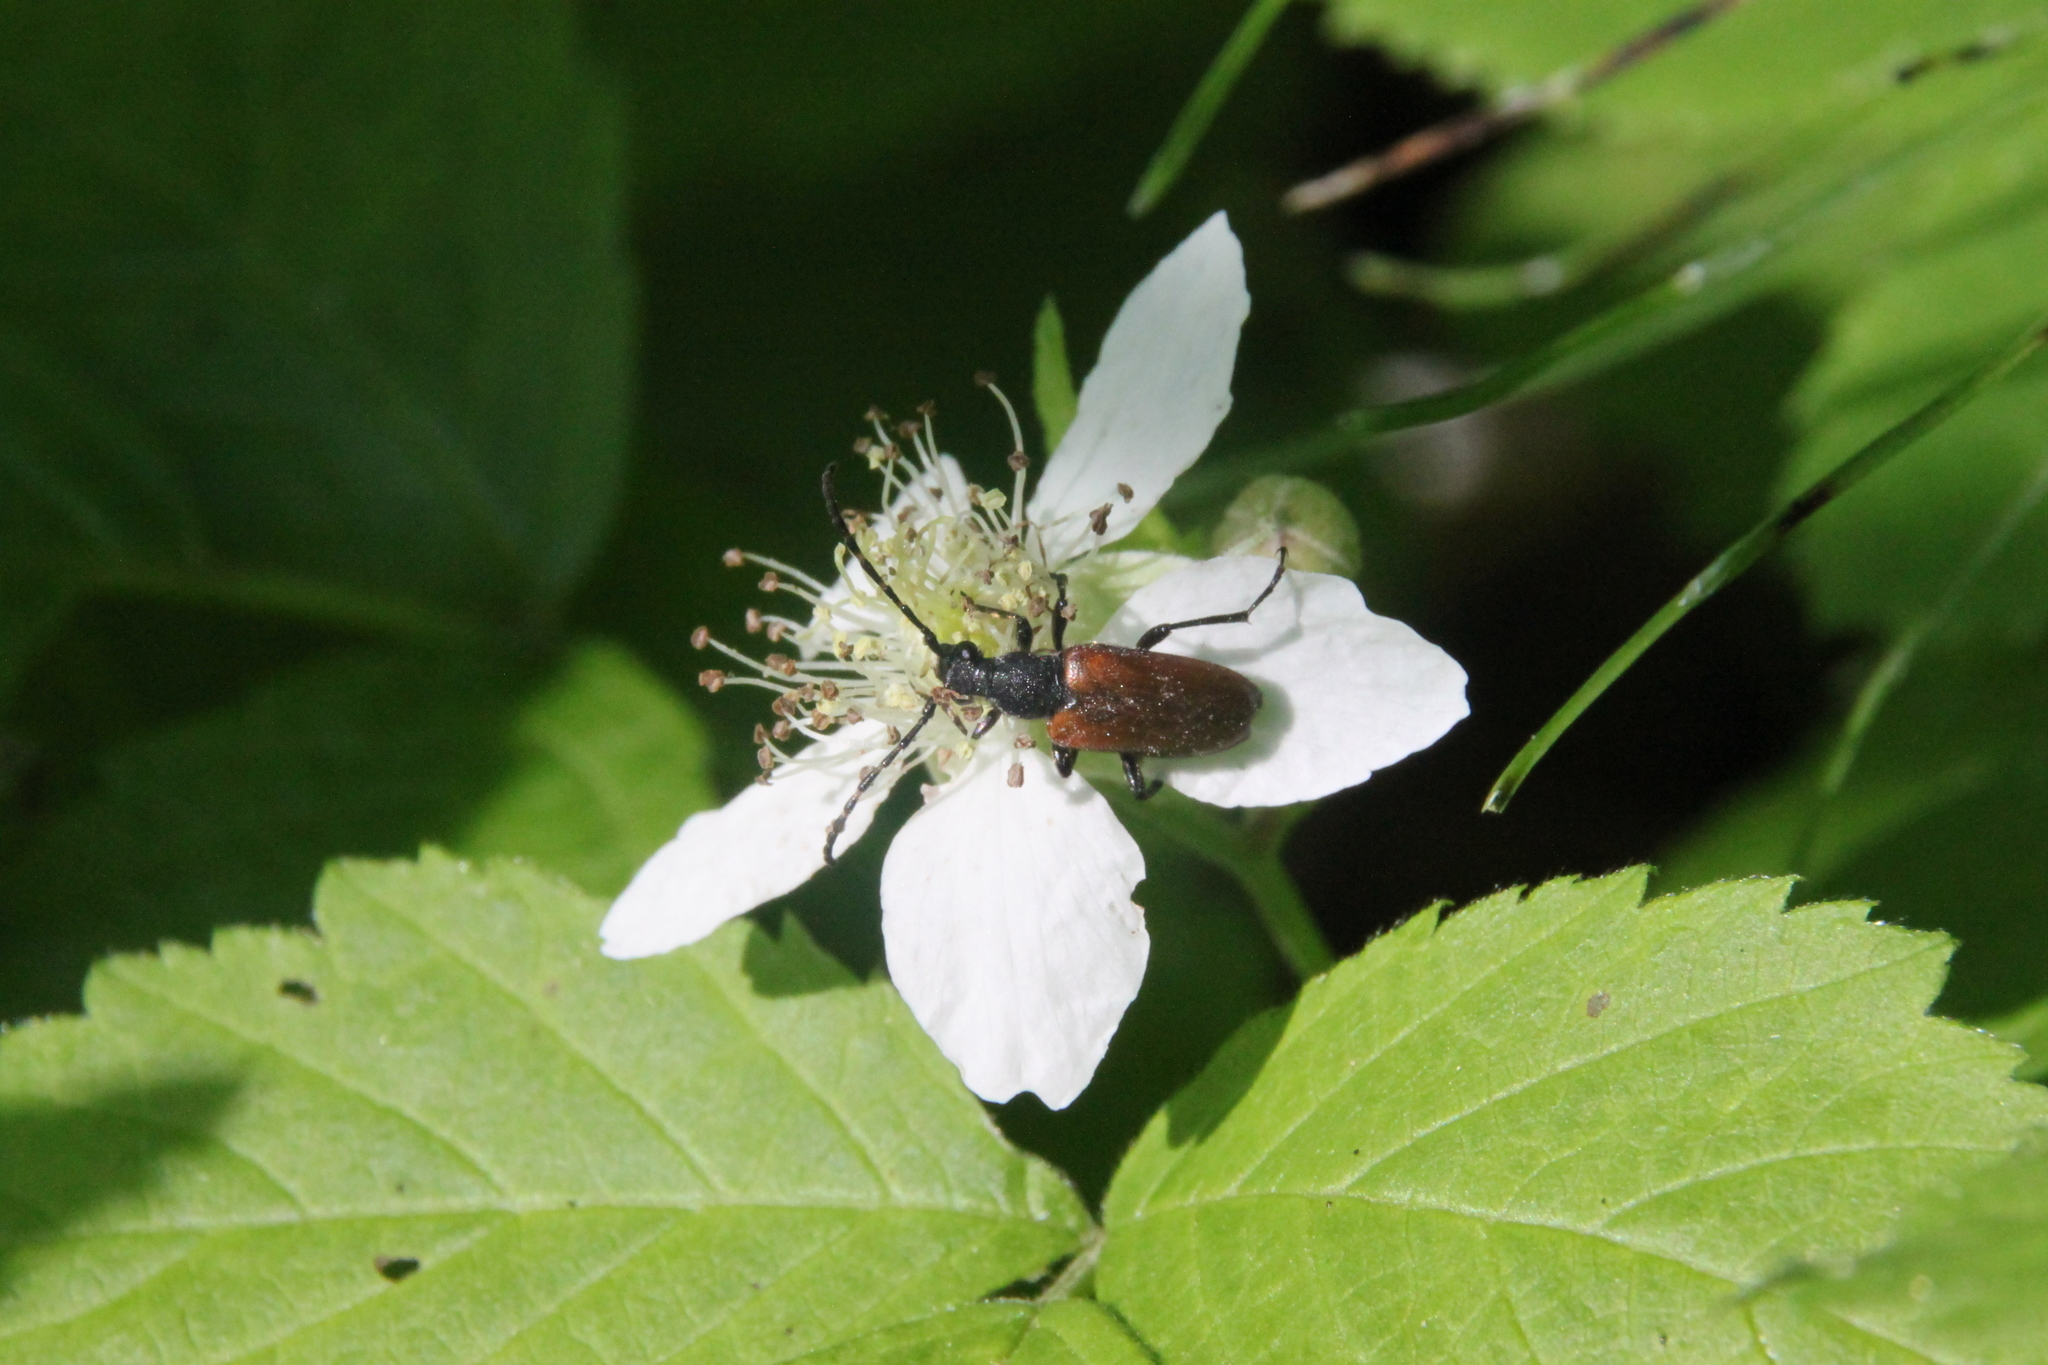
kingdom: Animalia
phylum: Arthropoda
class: Insecta
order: Coleoptera
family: Cerambycidae
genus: Paracorymbia
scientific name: Paracorymbia maculicornis
